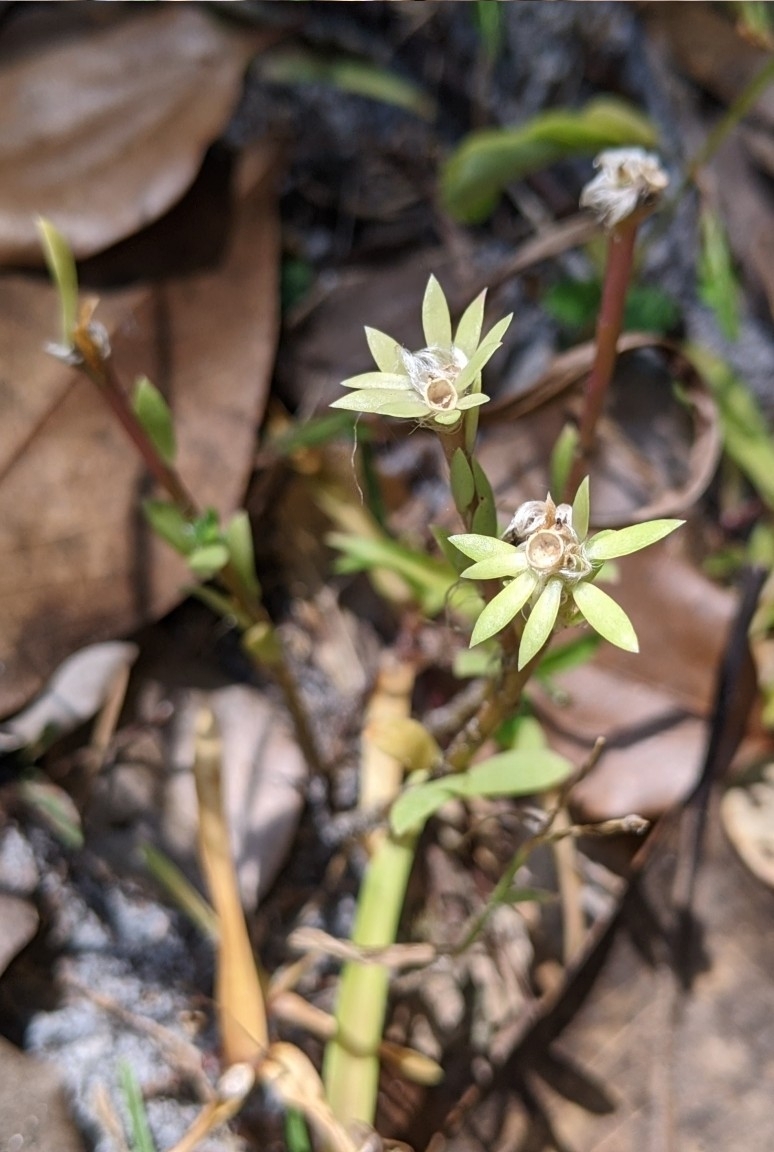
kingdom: Plantae
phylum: Tracheophyta
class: Magnoliopsida
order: Caryophyllales
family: Portulacaceae
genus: Portulaca
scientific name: Portulaca amilis
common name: Paraguayan purslane
